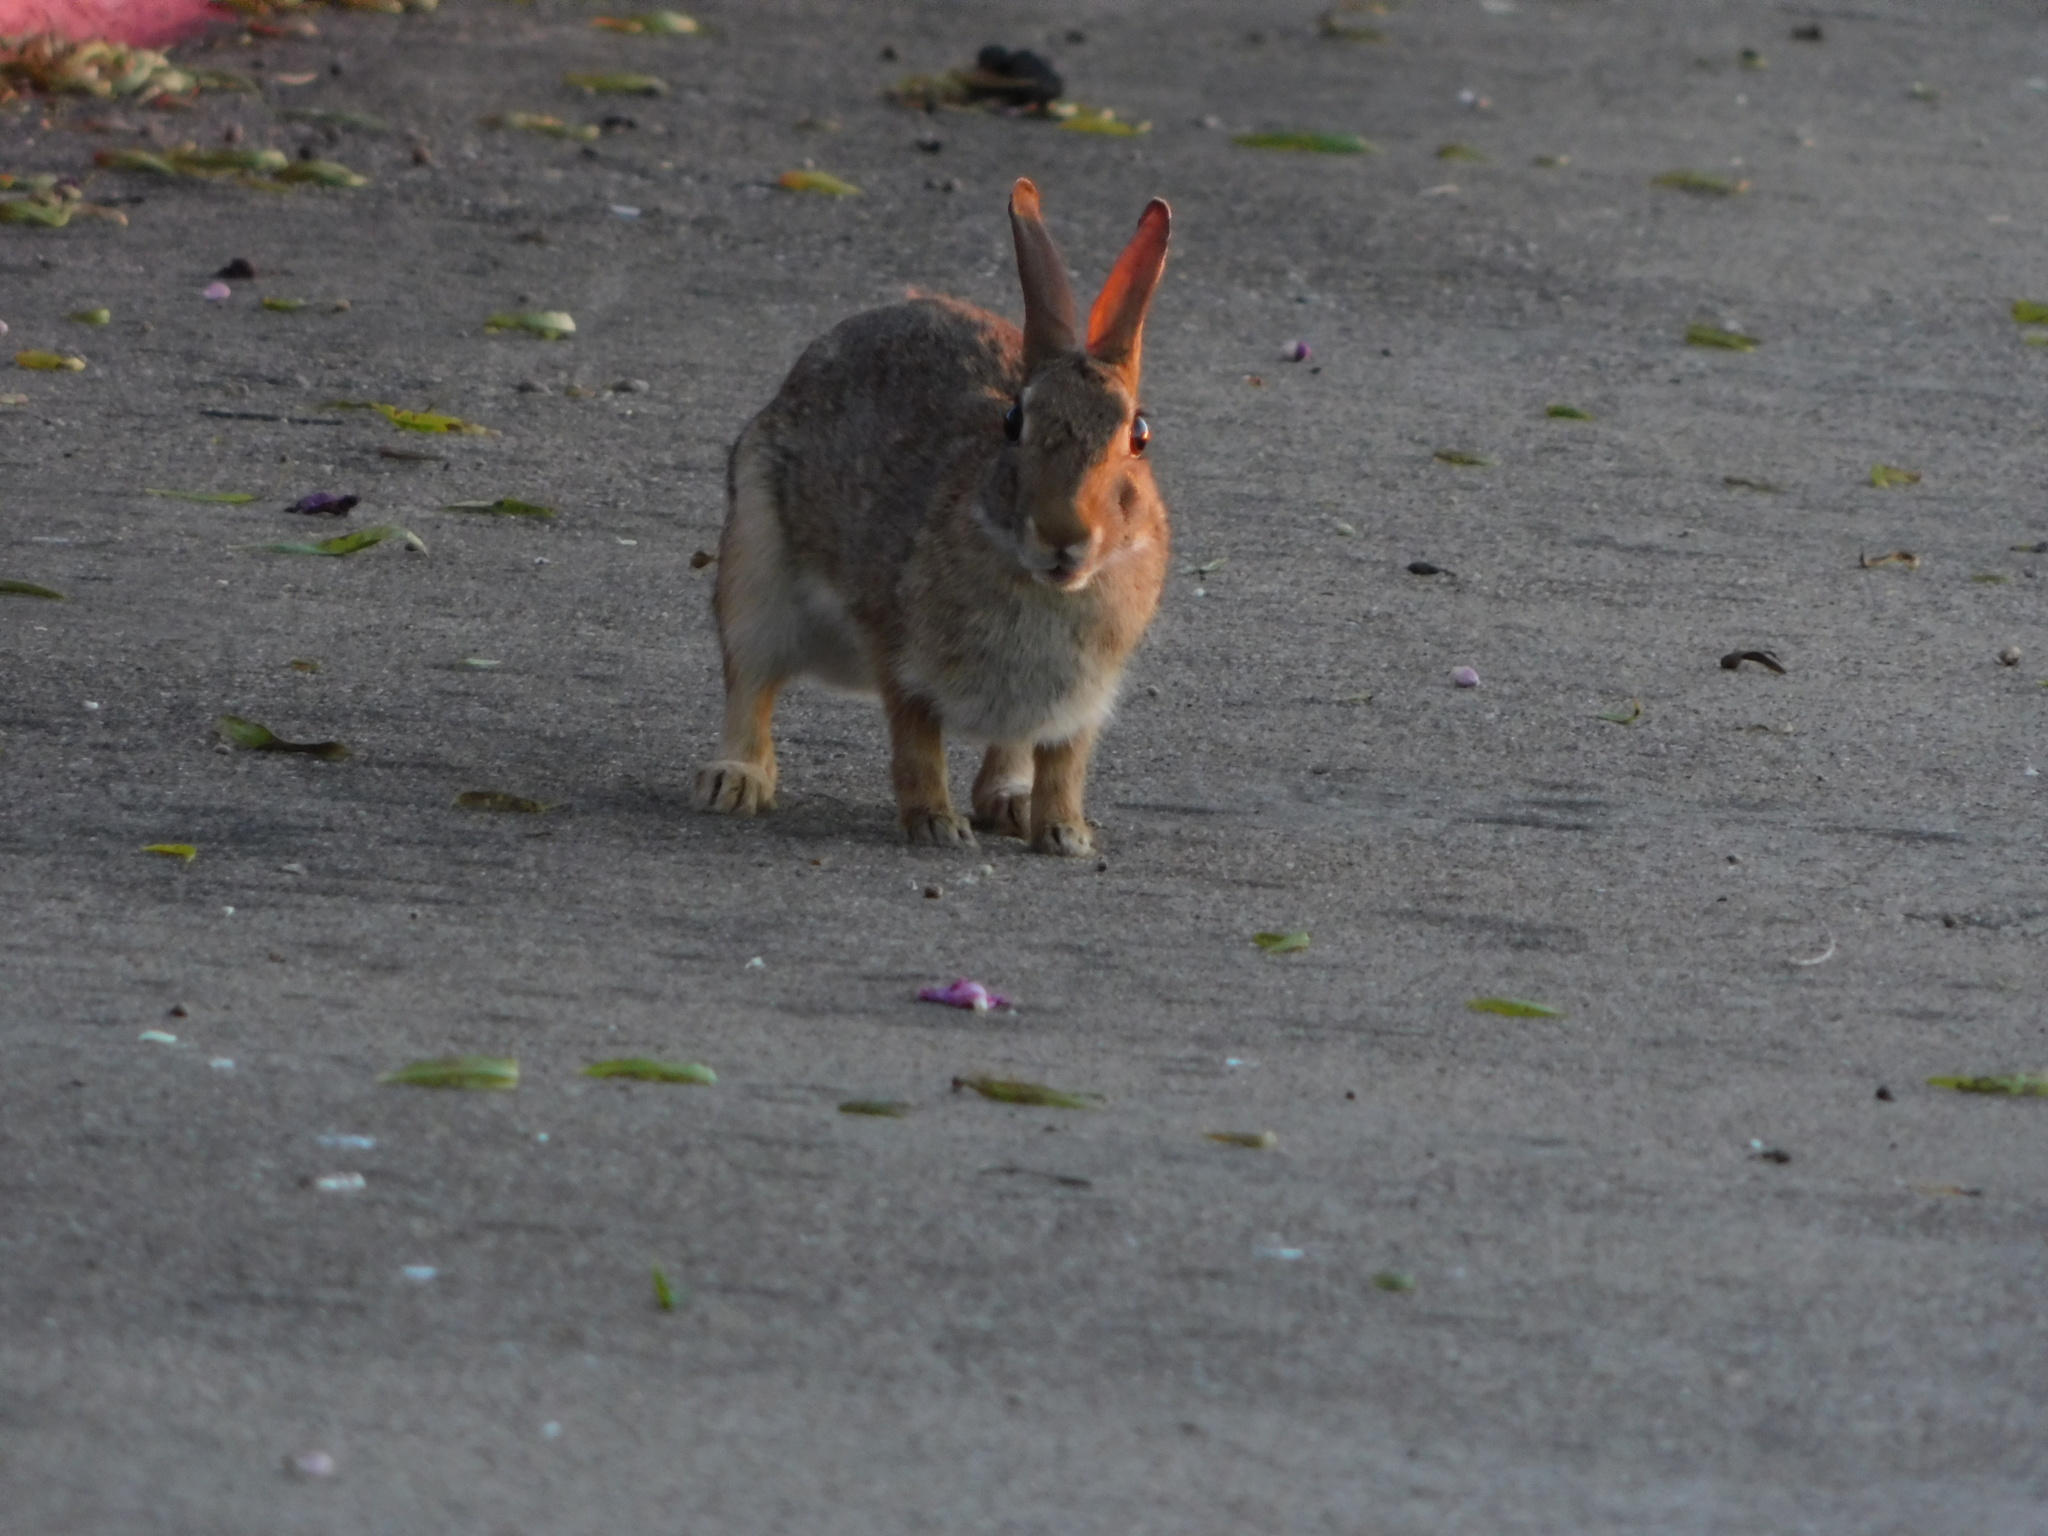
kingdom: Animalia
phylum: Chordata
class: Mammalia
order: Lagomorpha
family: Leporidae
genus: Sylvilagus
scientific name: Sylvilagus floridanus
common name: Eastern cottontail
